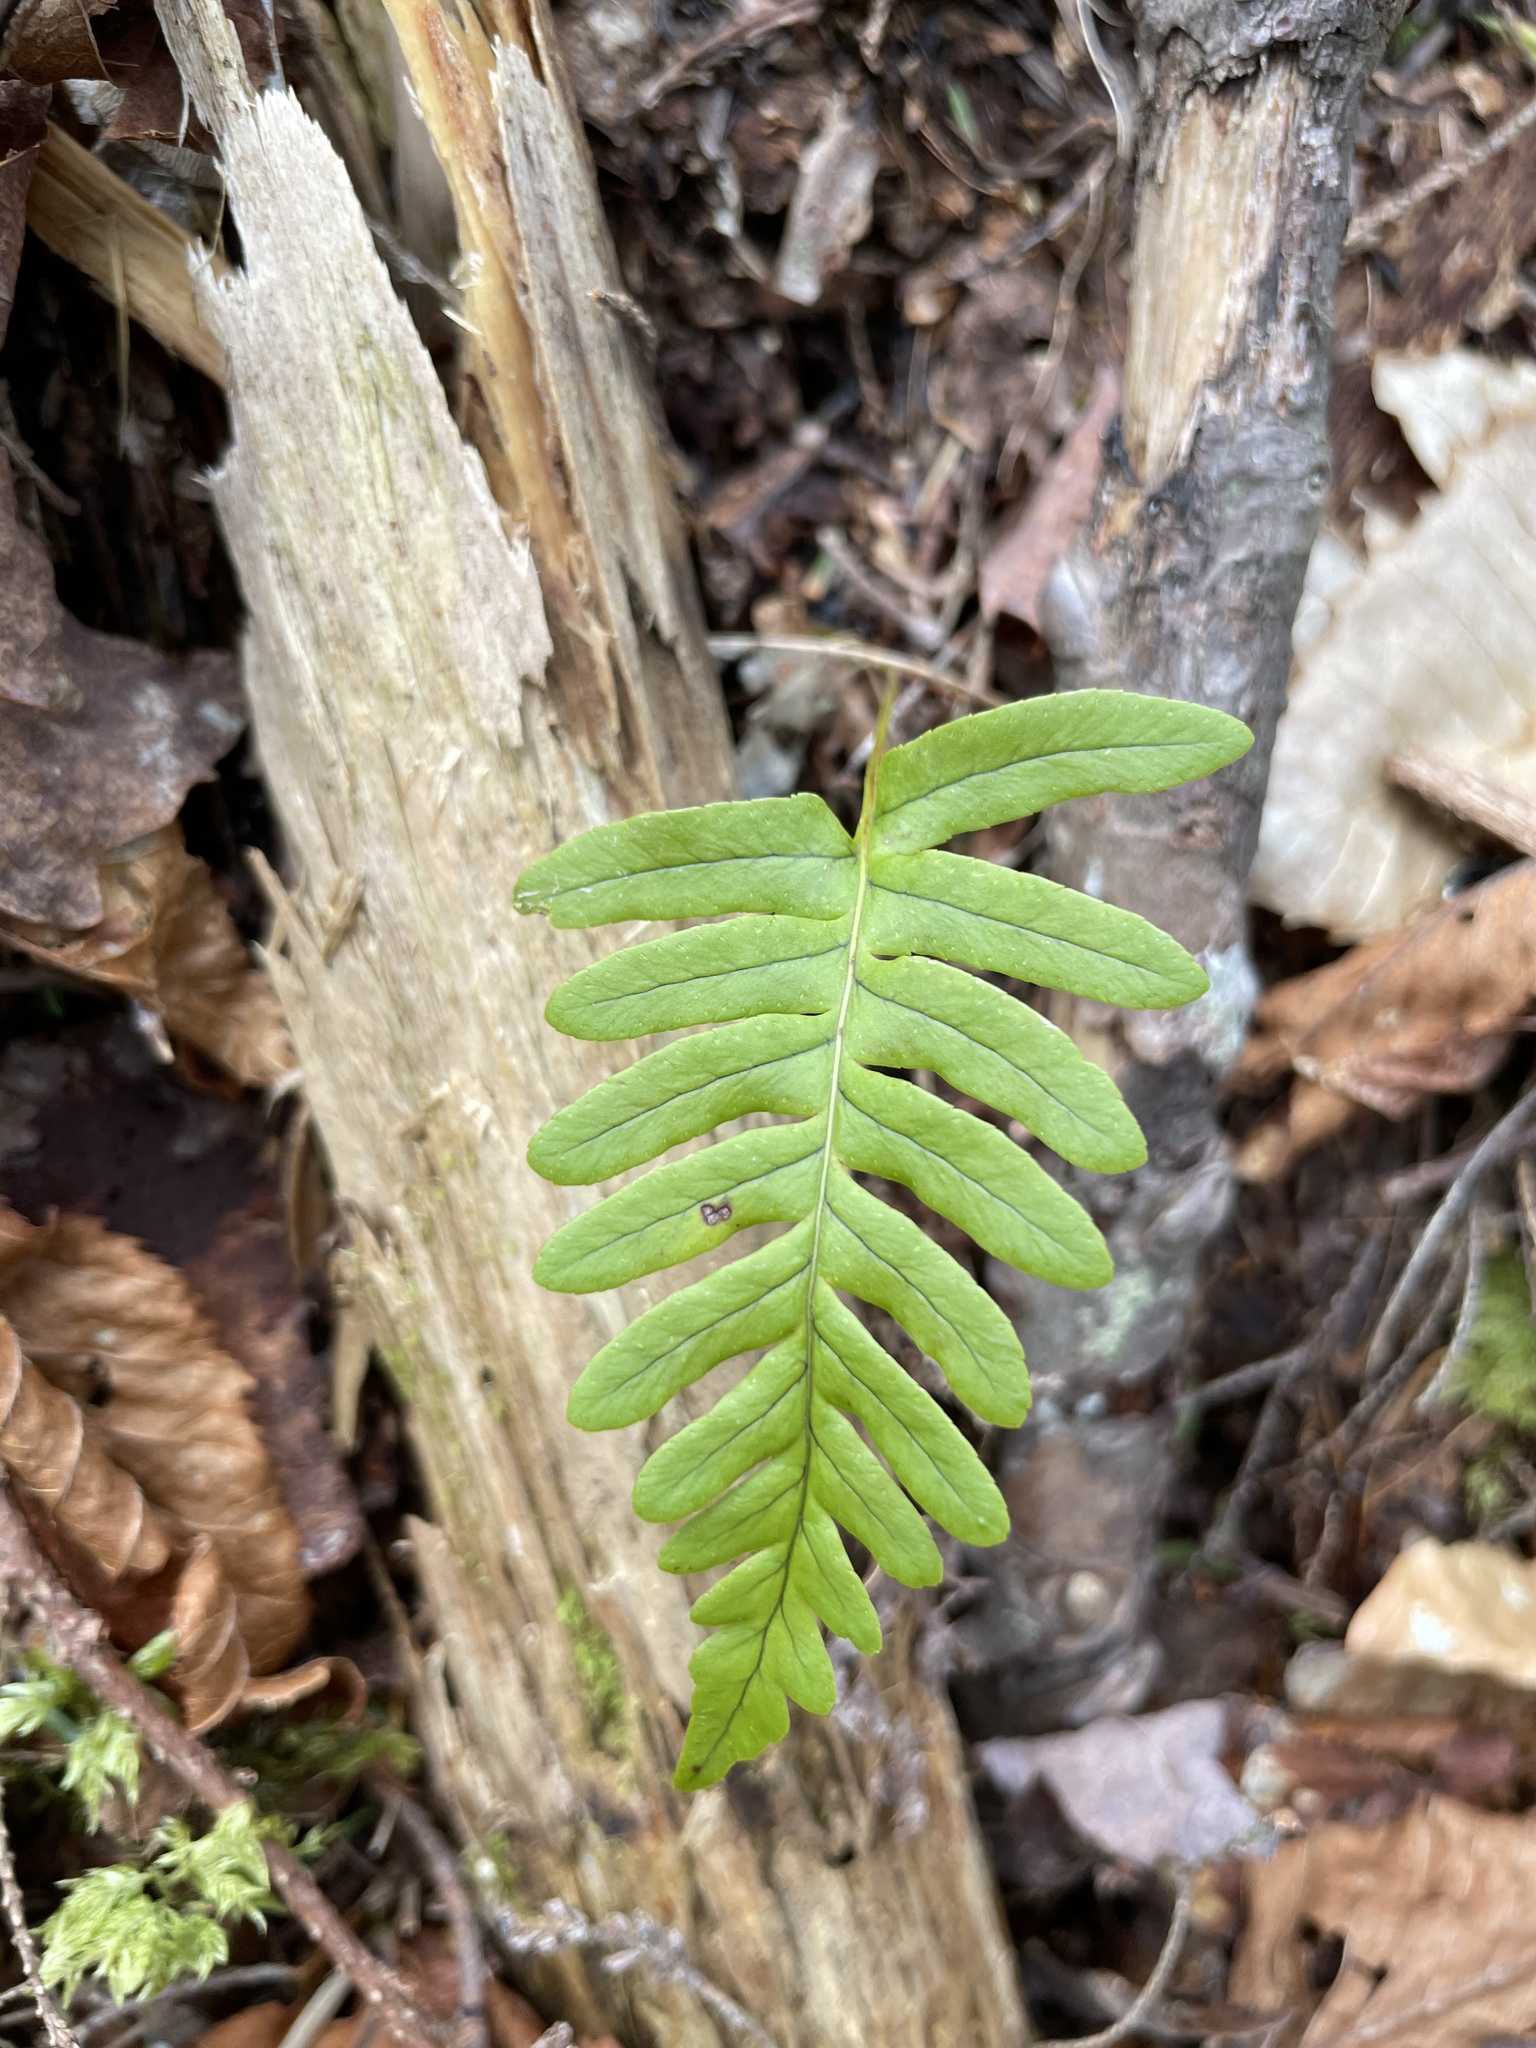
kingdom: Plantae
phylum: Tracheophyta
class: Polypodiopsida
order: Polypodiales
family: Polypodiaceae
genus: Polypodium
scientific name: Polypodium virginianum
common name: American wall fern
